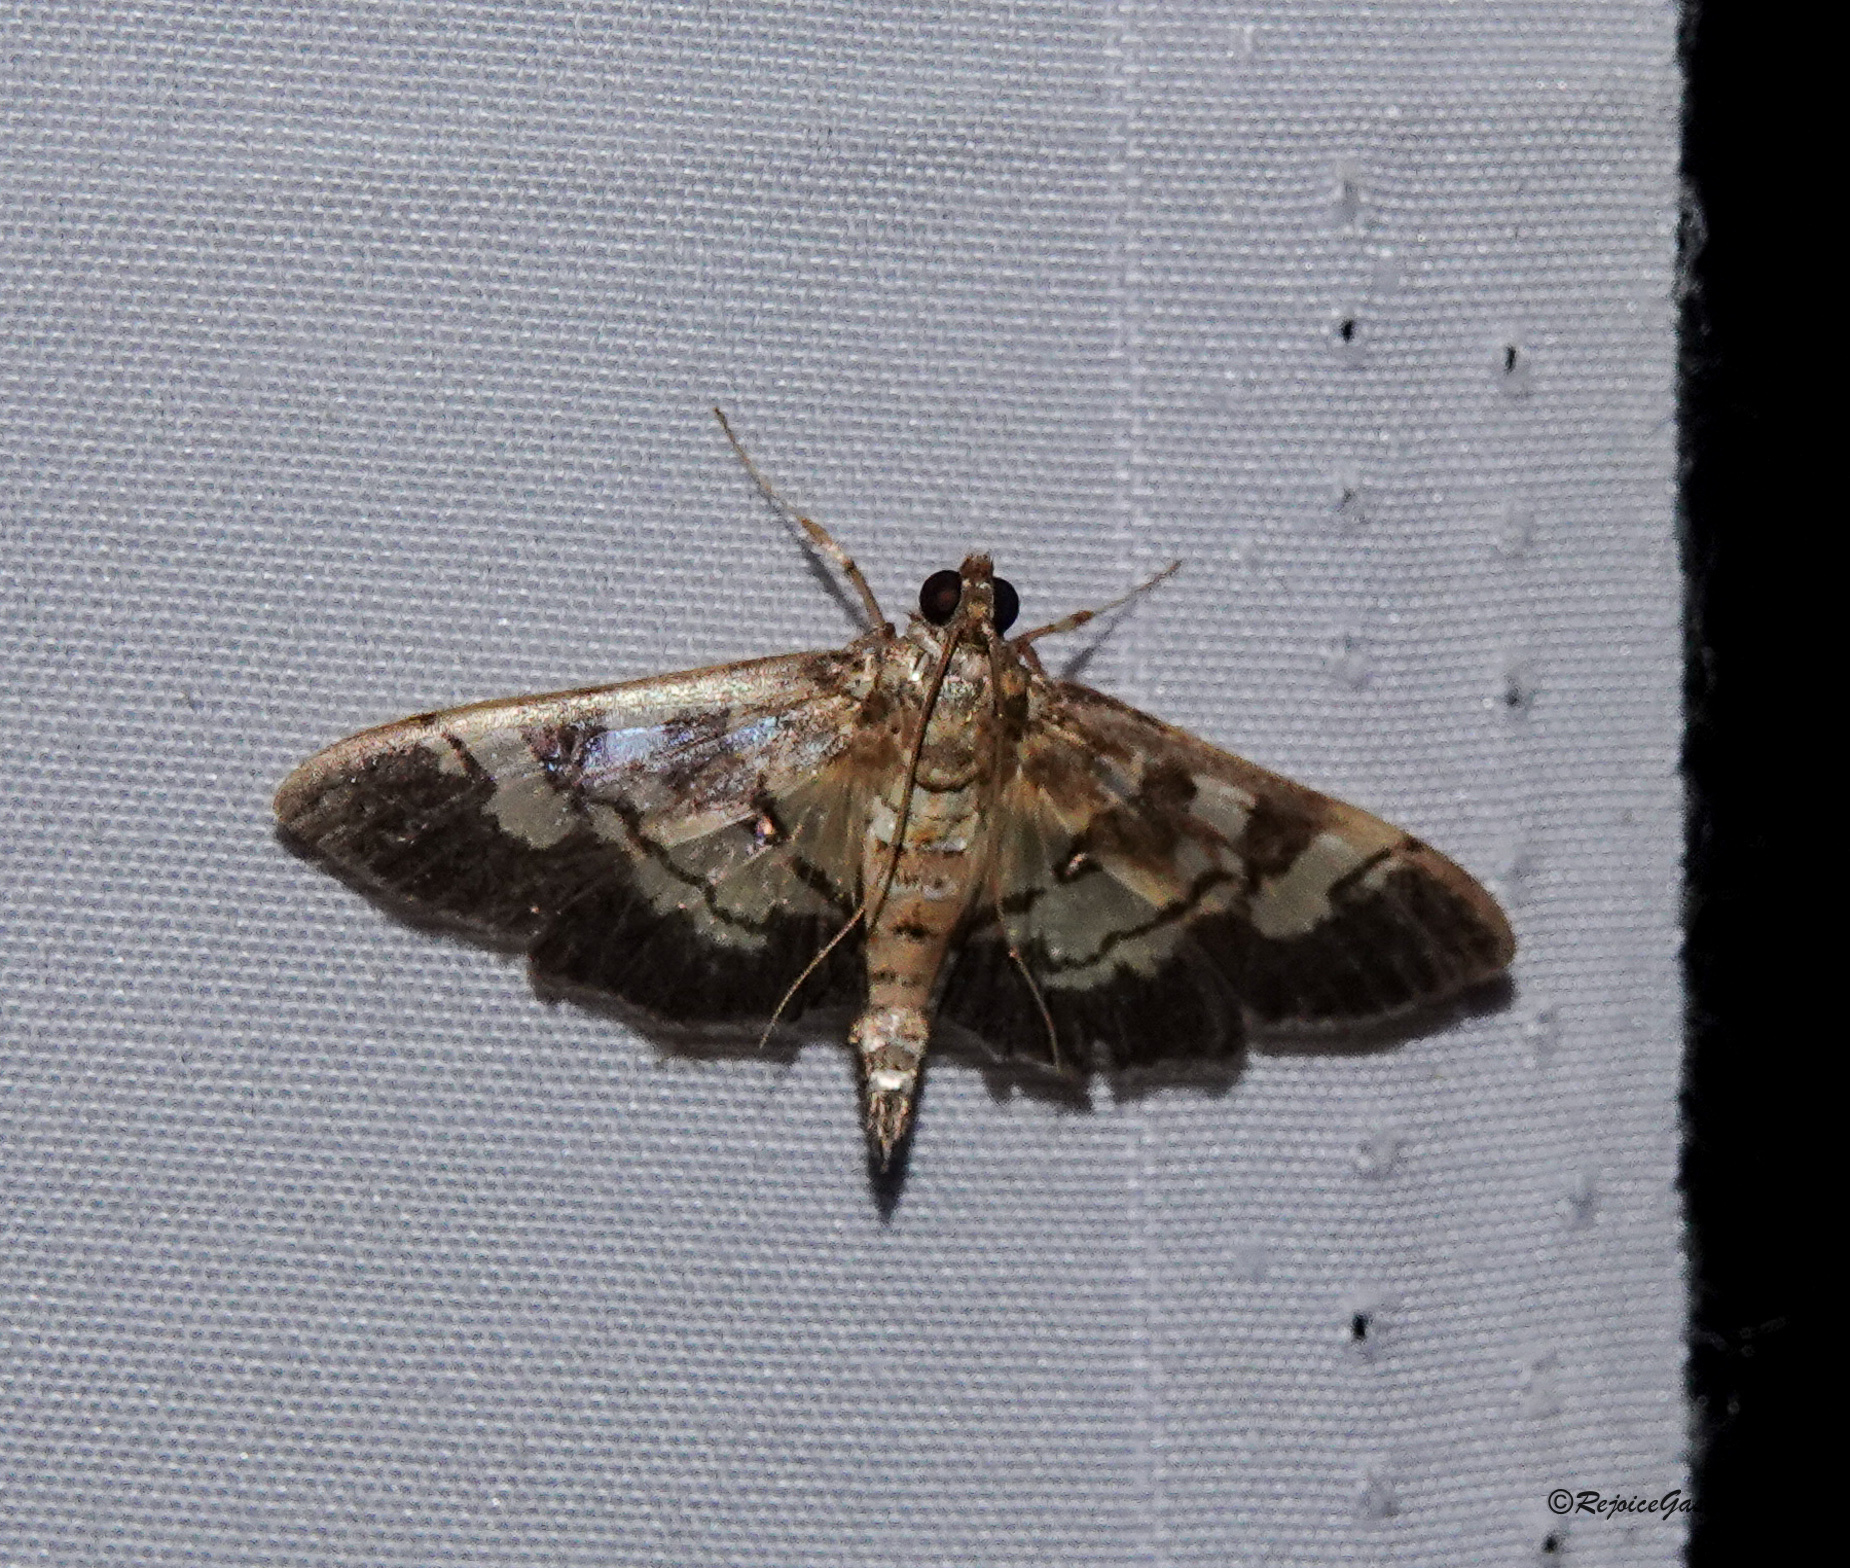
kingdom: Animalia
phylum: Arthropoda
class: Insecta
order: Lepidoptera
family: Crambidae
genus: Uresiphita
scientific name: Uresiphita quinquigera
